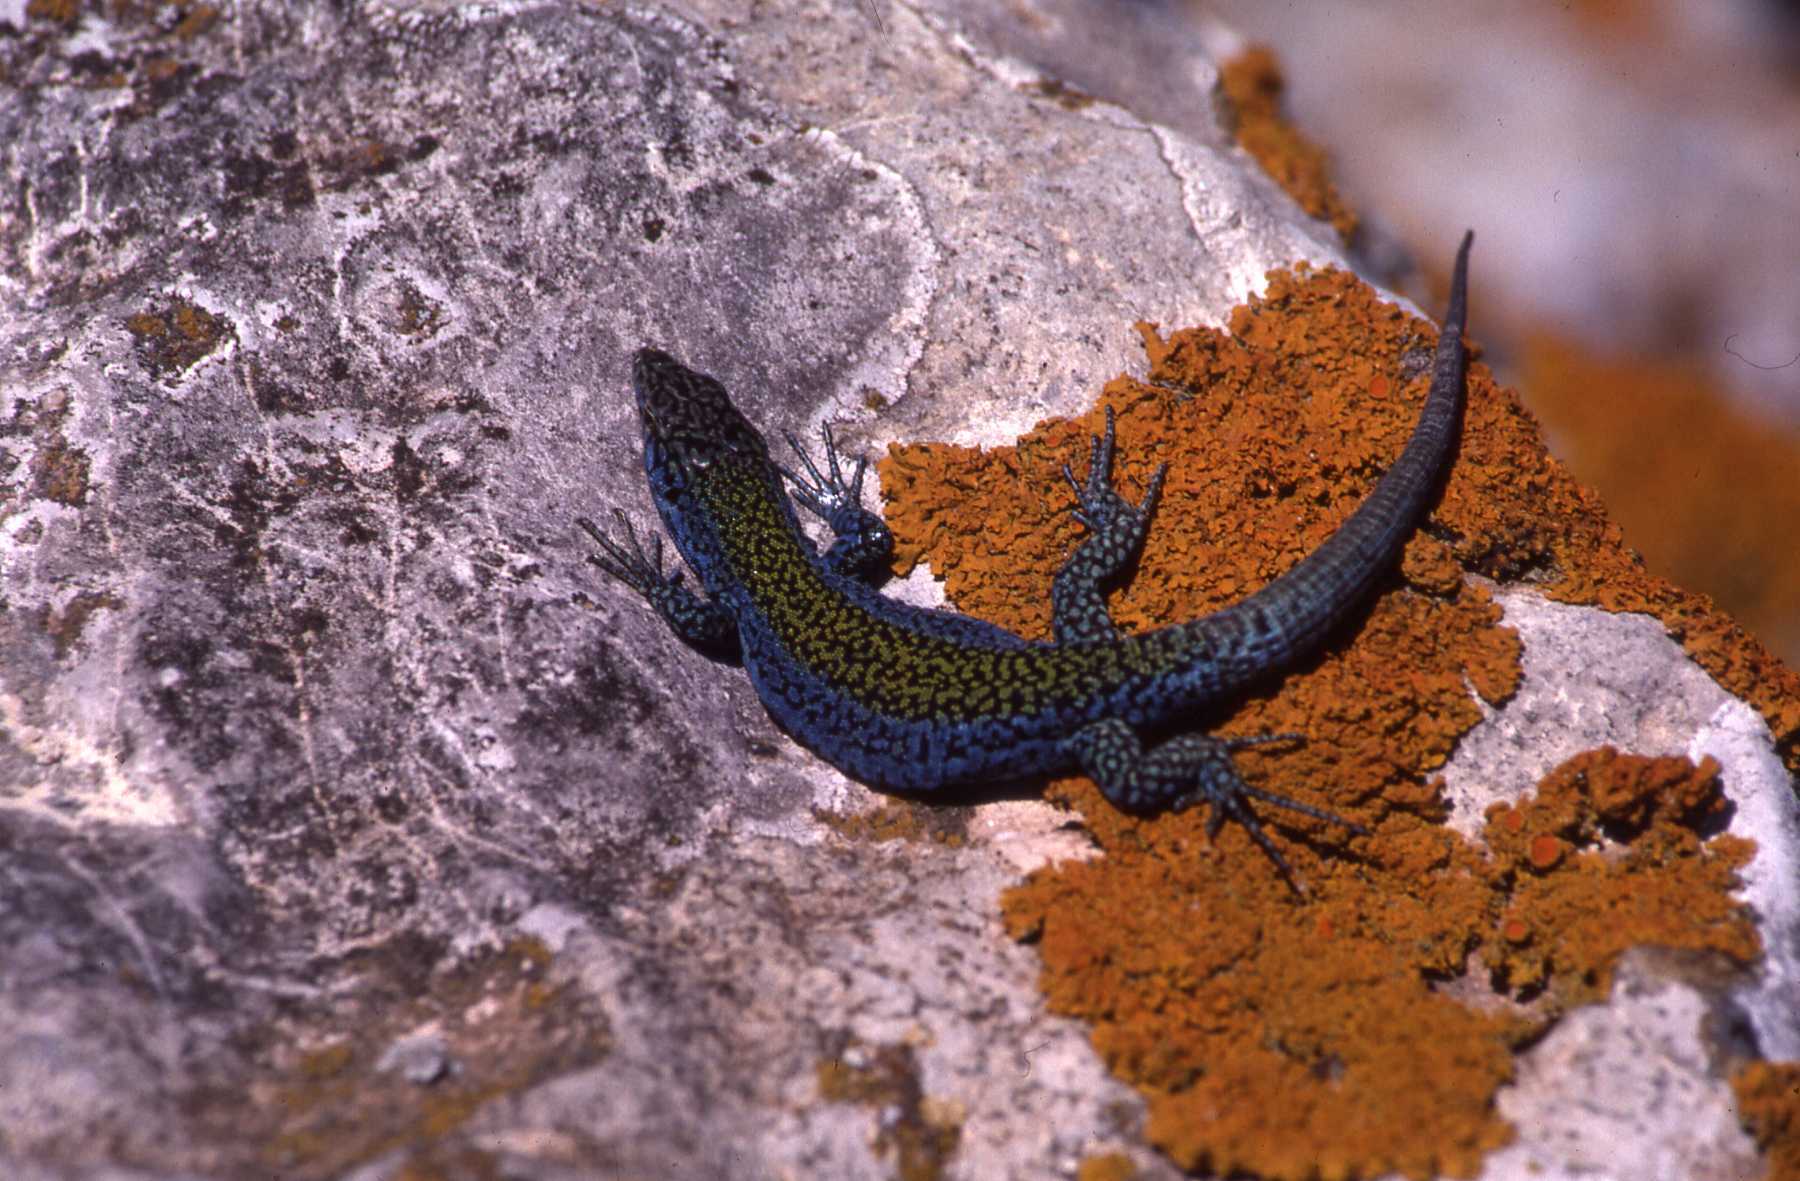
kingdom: Animalia
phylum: Chordata
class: Squamata
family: Lacertidae
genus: Podarcis
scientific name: Podarcis pityusensis
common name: Ibiza wall lizard
